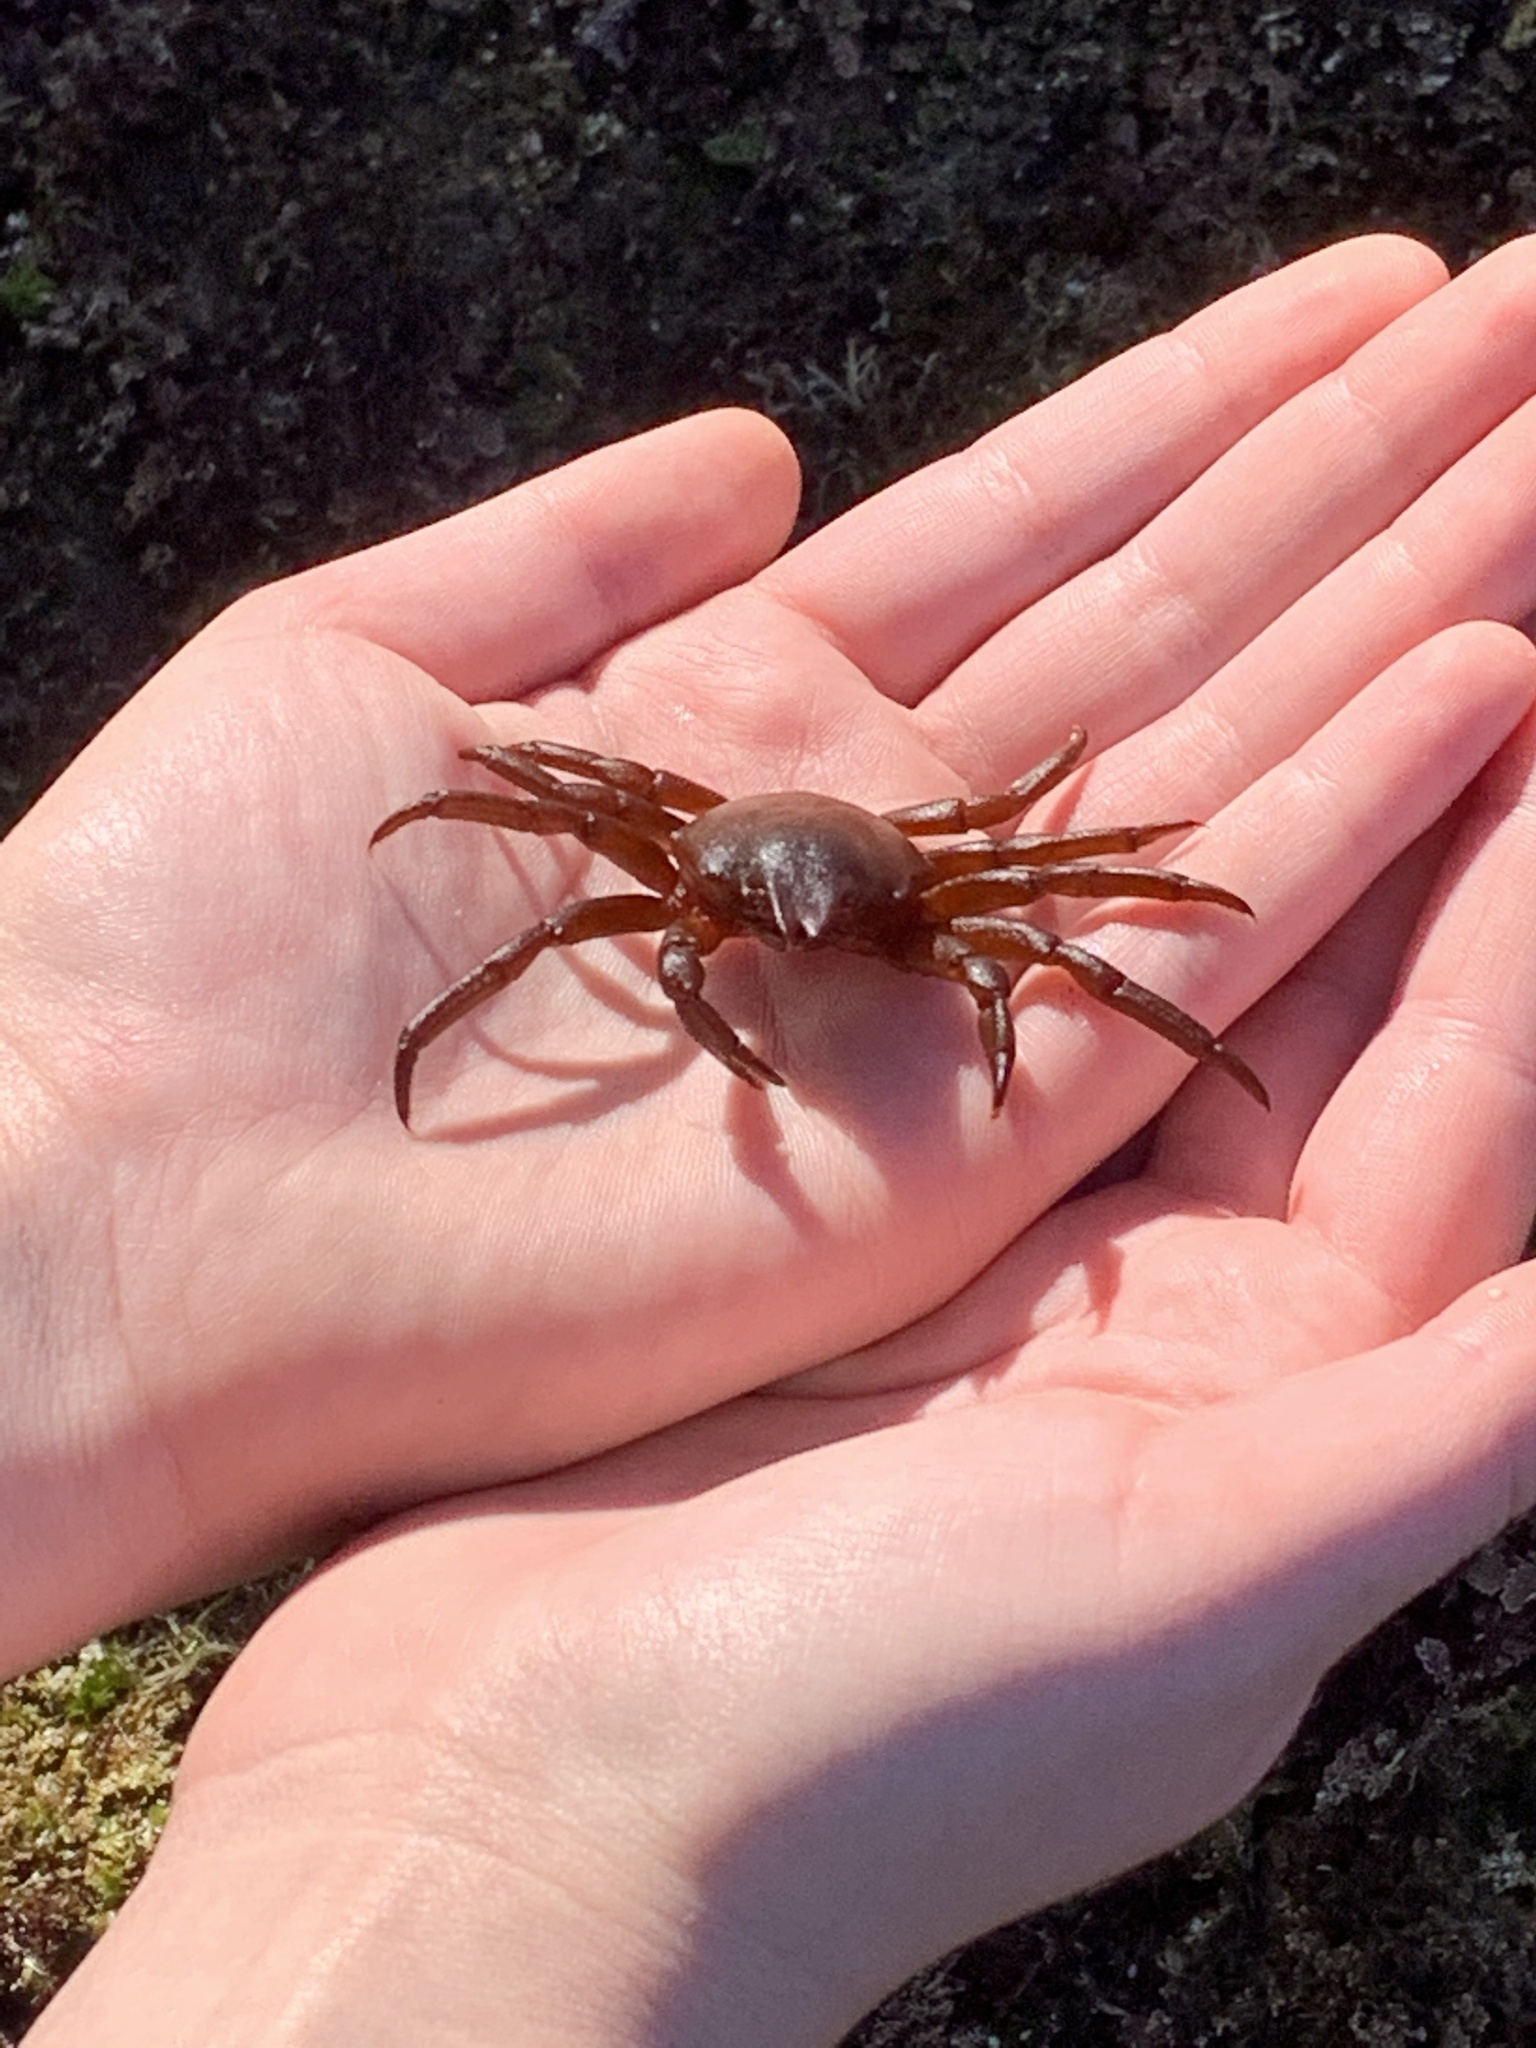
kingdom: Animalia
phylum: Arthropoda
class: Malacostraca
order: Decapoda
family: Epialtidae
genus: Taliepus
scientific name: Taliepus nuttallii
